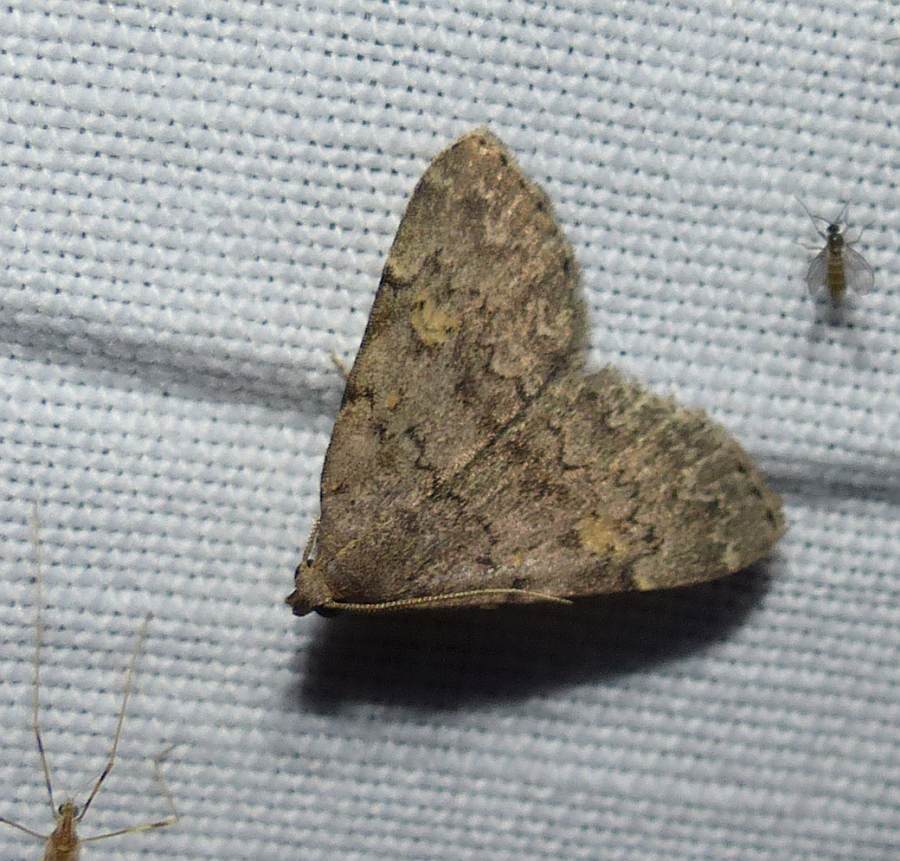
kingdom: Animalia
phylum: Arthropoda
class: Insecta
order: Lepidoptera
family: Erebidae
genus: Idia
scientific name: Idia aemula
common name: Common idia moth
